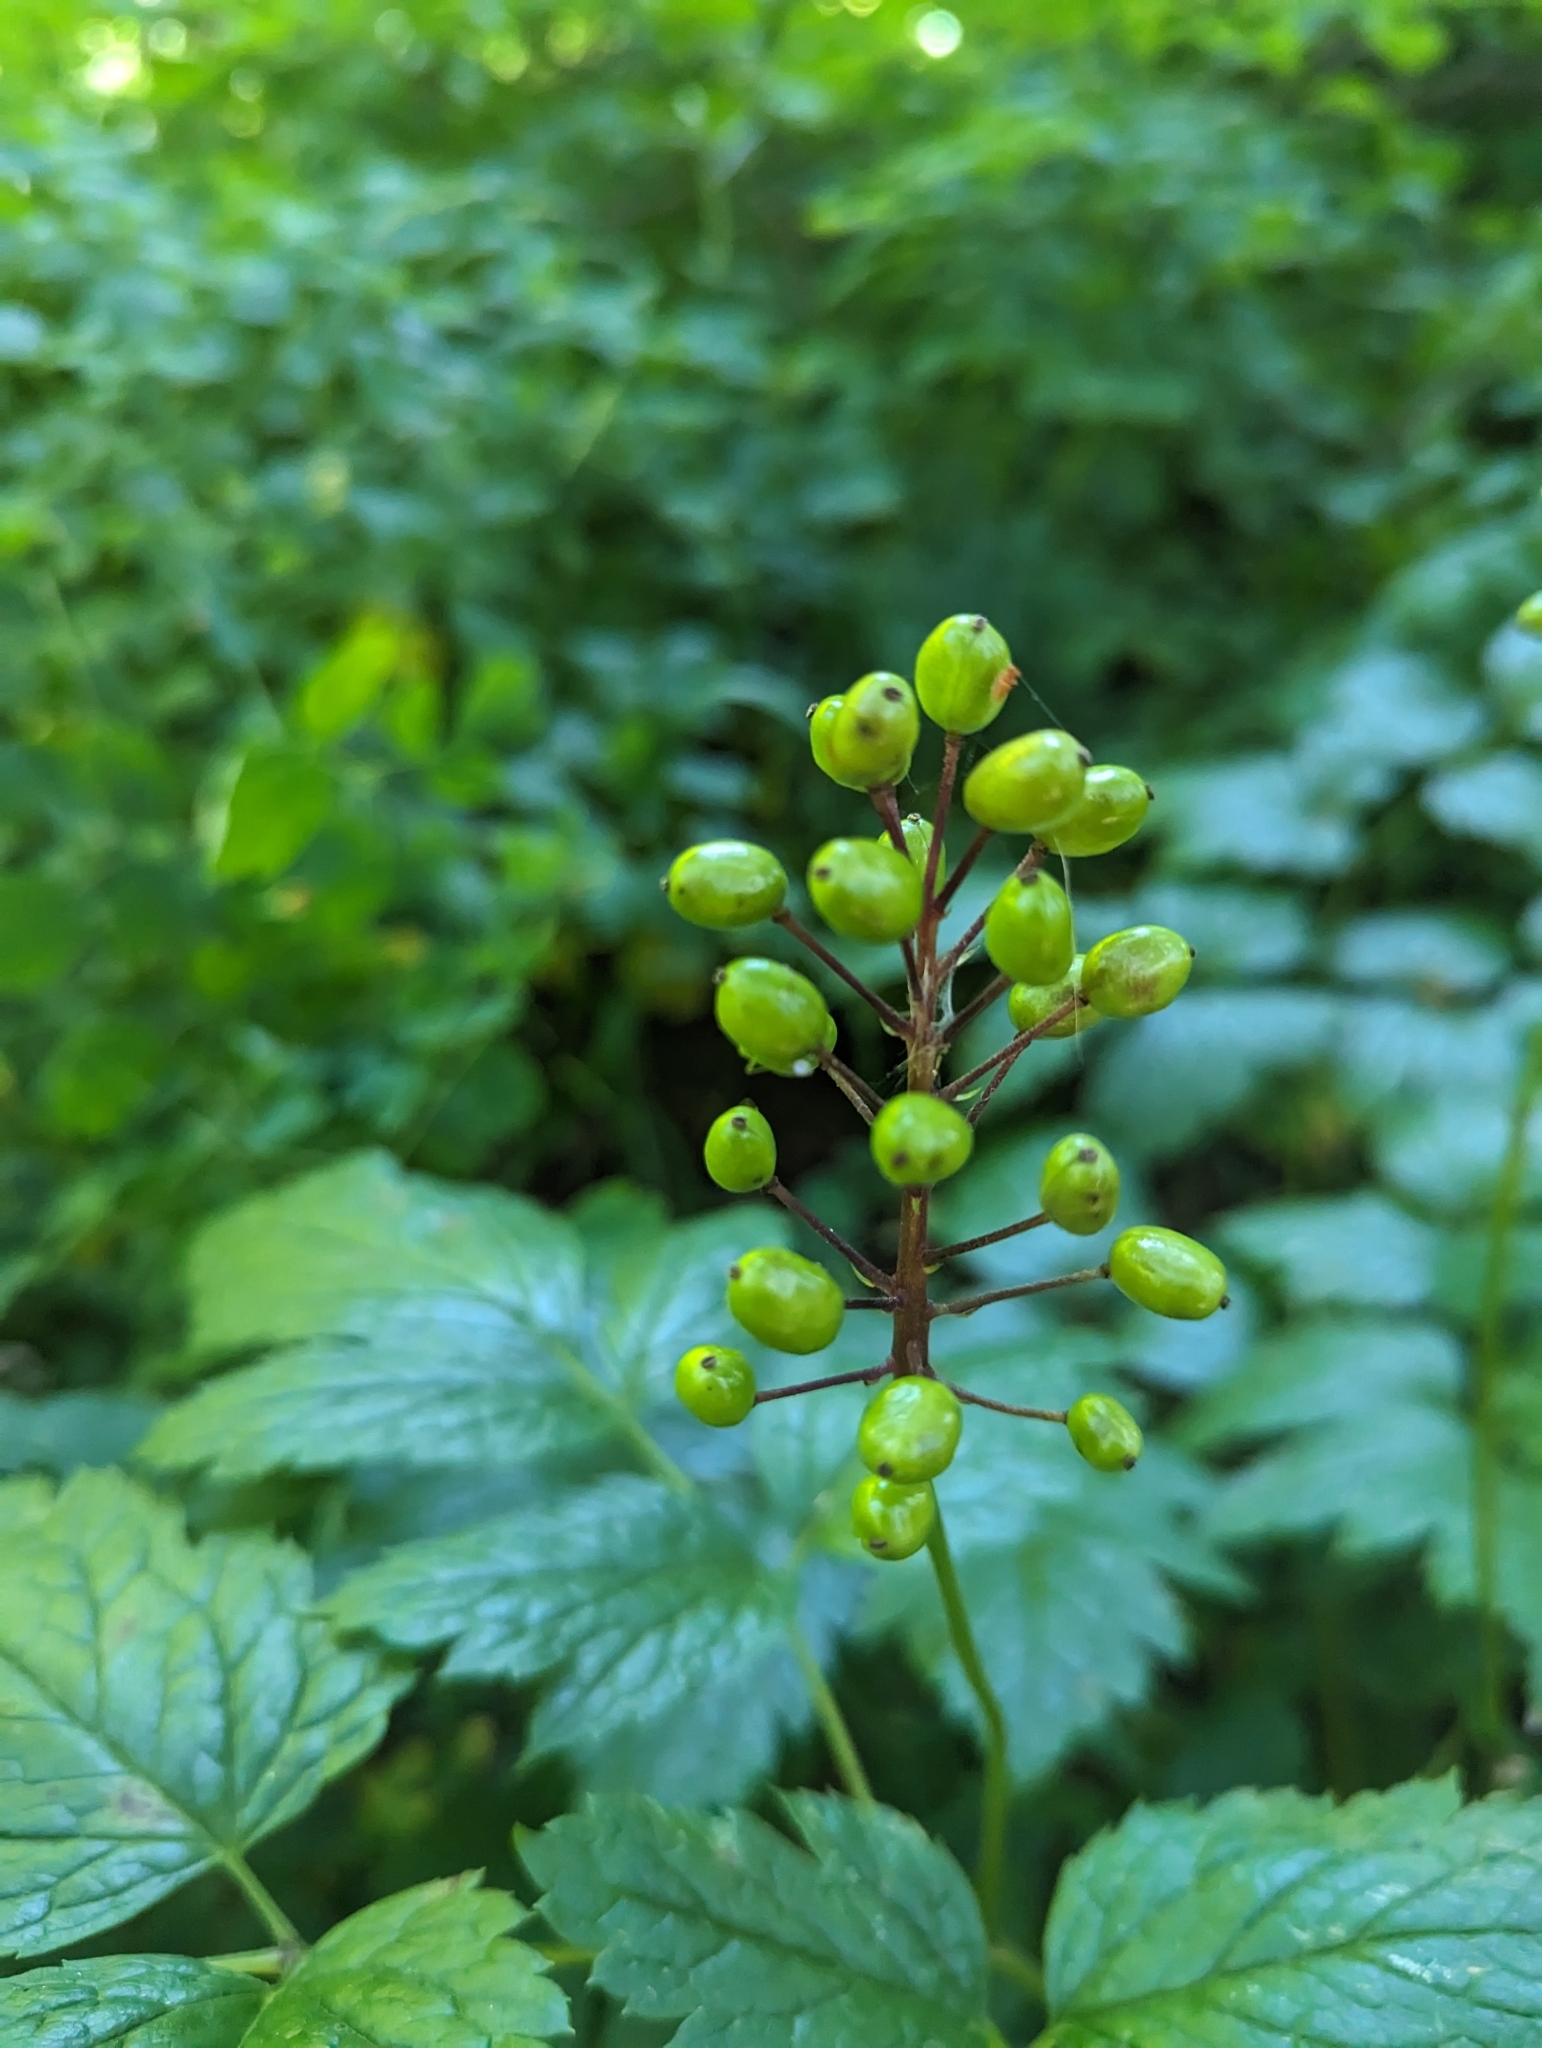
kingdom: Plantae
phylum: Tracheophyta
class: Magnoliopsida
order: Ranunculales
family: Ranunculaceae
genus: Actaea
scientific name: Actaea rubra
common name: Red baneberry
